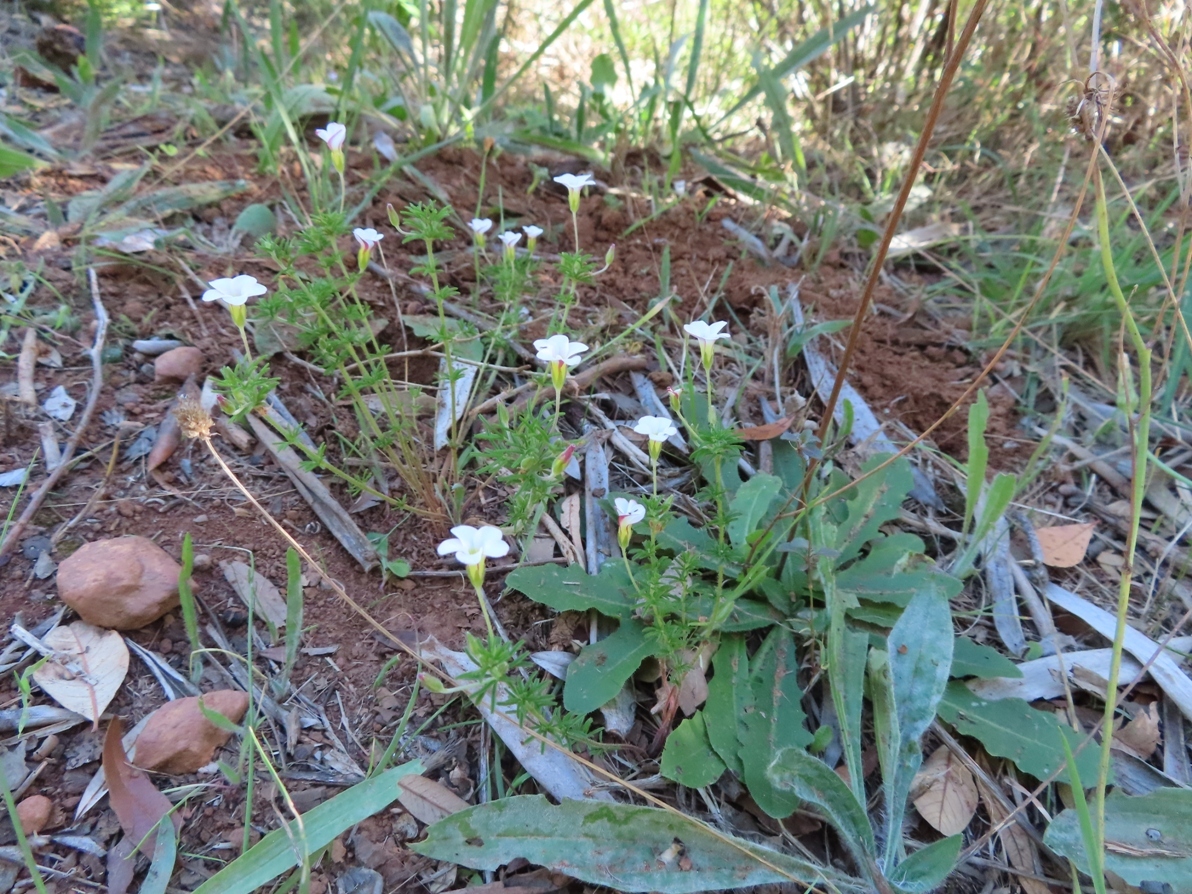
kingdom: Plantae
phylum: Tracheophyta
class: Magnoliopsida
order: Oxalidales
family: Oxalidaceae
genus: Oxalis
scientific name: Oxalis tenuifolia
